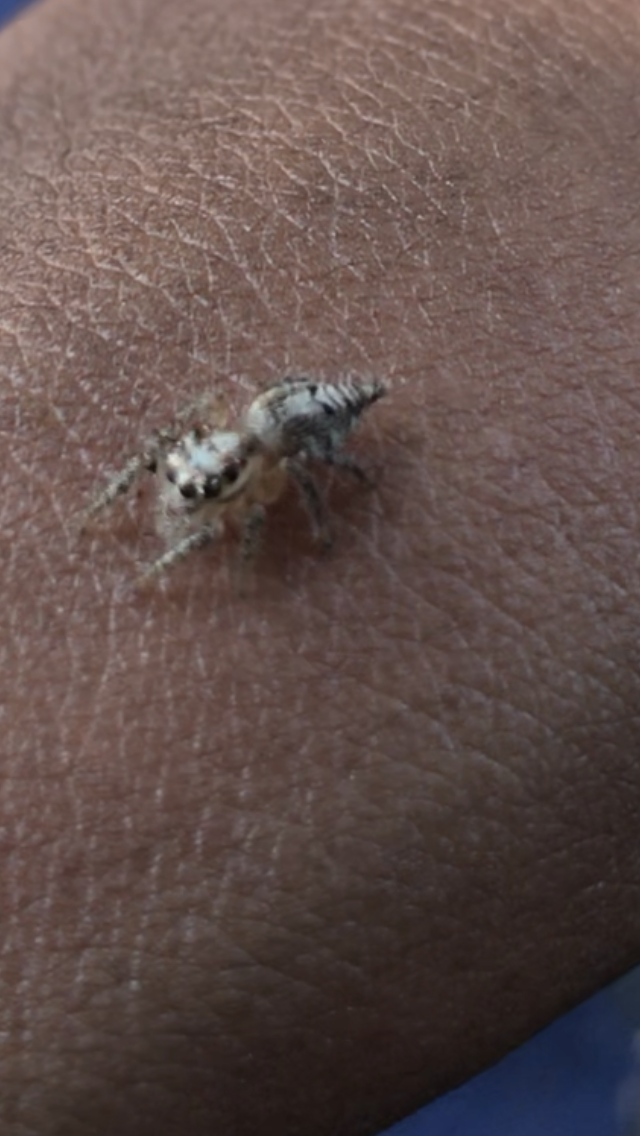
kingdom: Animalia
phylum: Arthropoda
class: Arachnida
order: Araneae
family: Salticidae
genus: Hyllus
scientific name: Hyllus semicupreus
